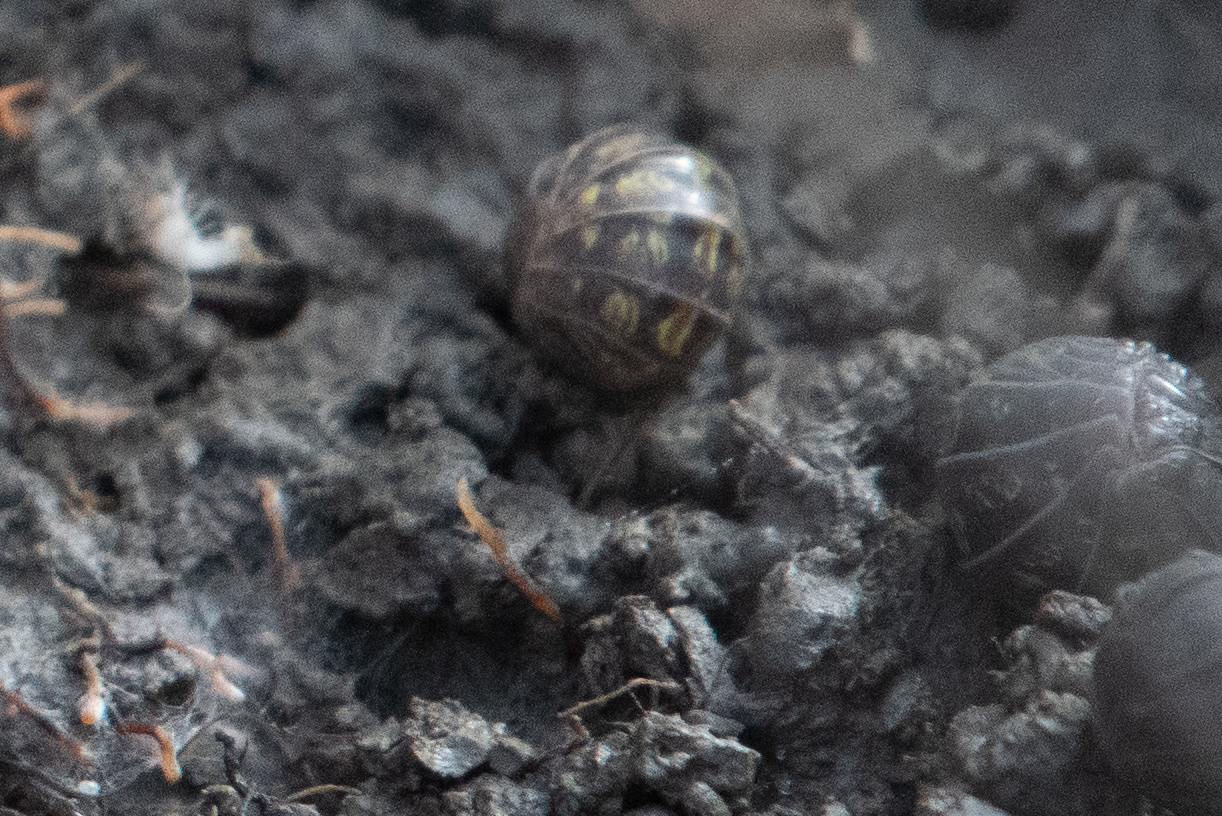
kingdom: Animalia
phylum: Arthropoda
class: Malacostraca
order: Isopoda
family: Armadillidiidae
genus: Armadillidium
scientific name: Armadillidium vulgare
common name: Common pill woodlouse
